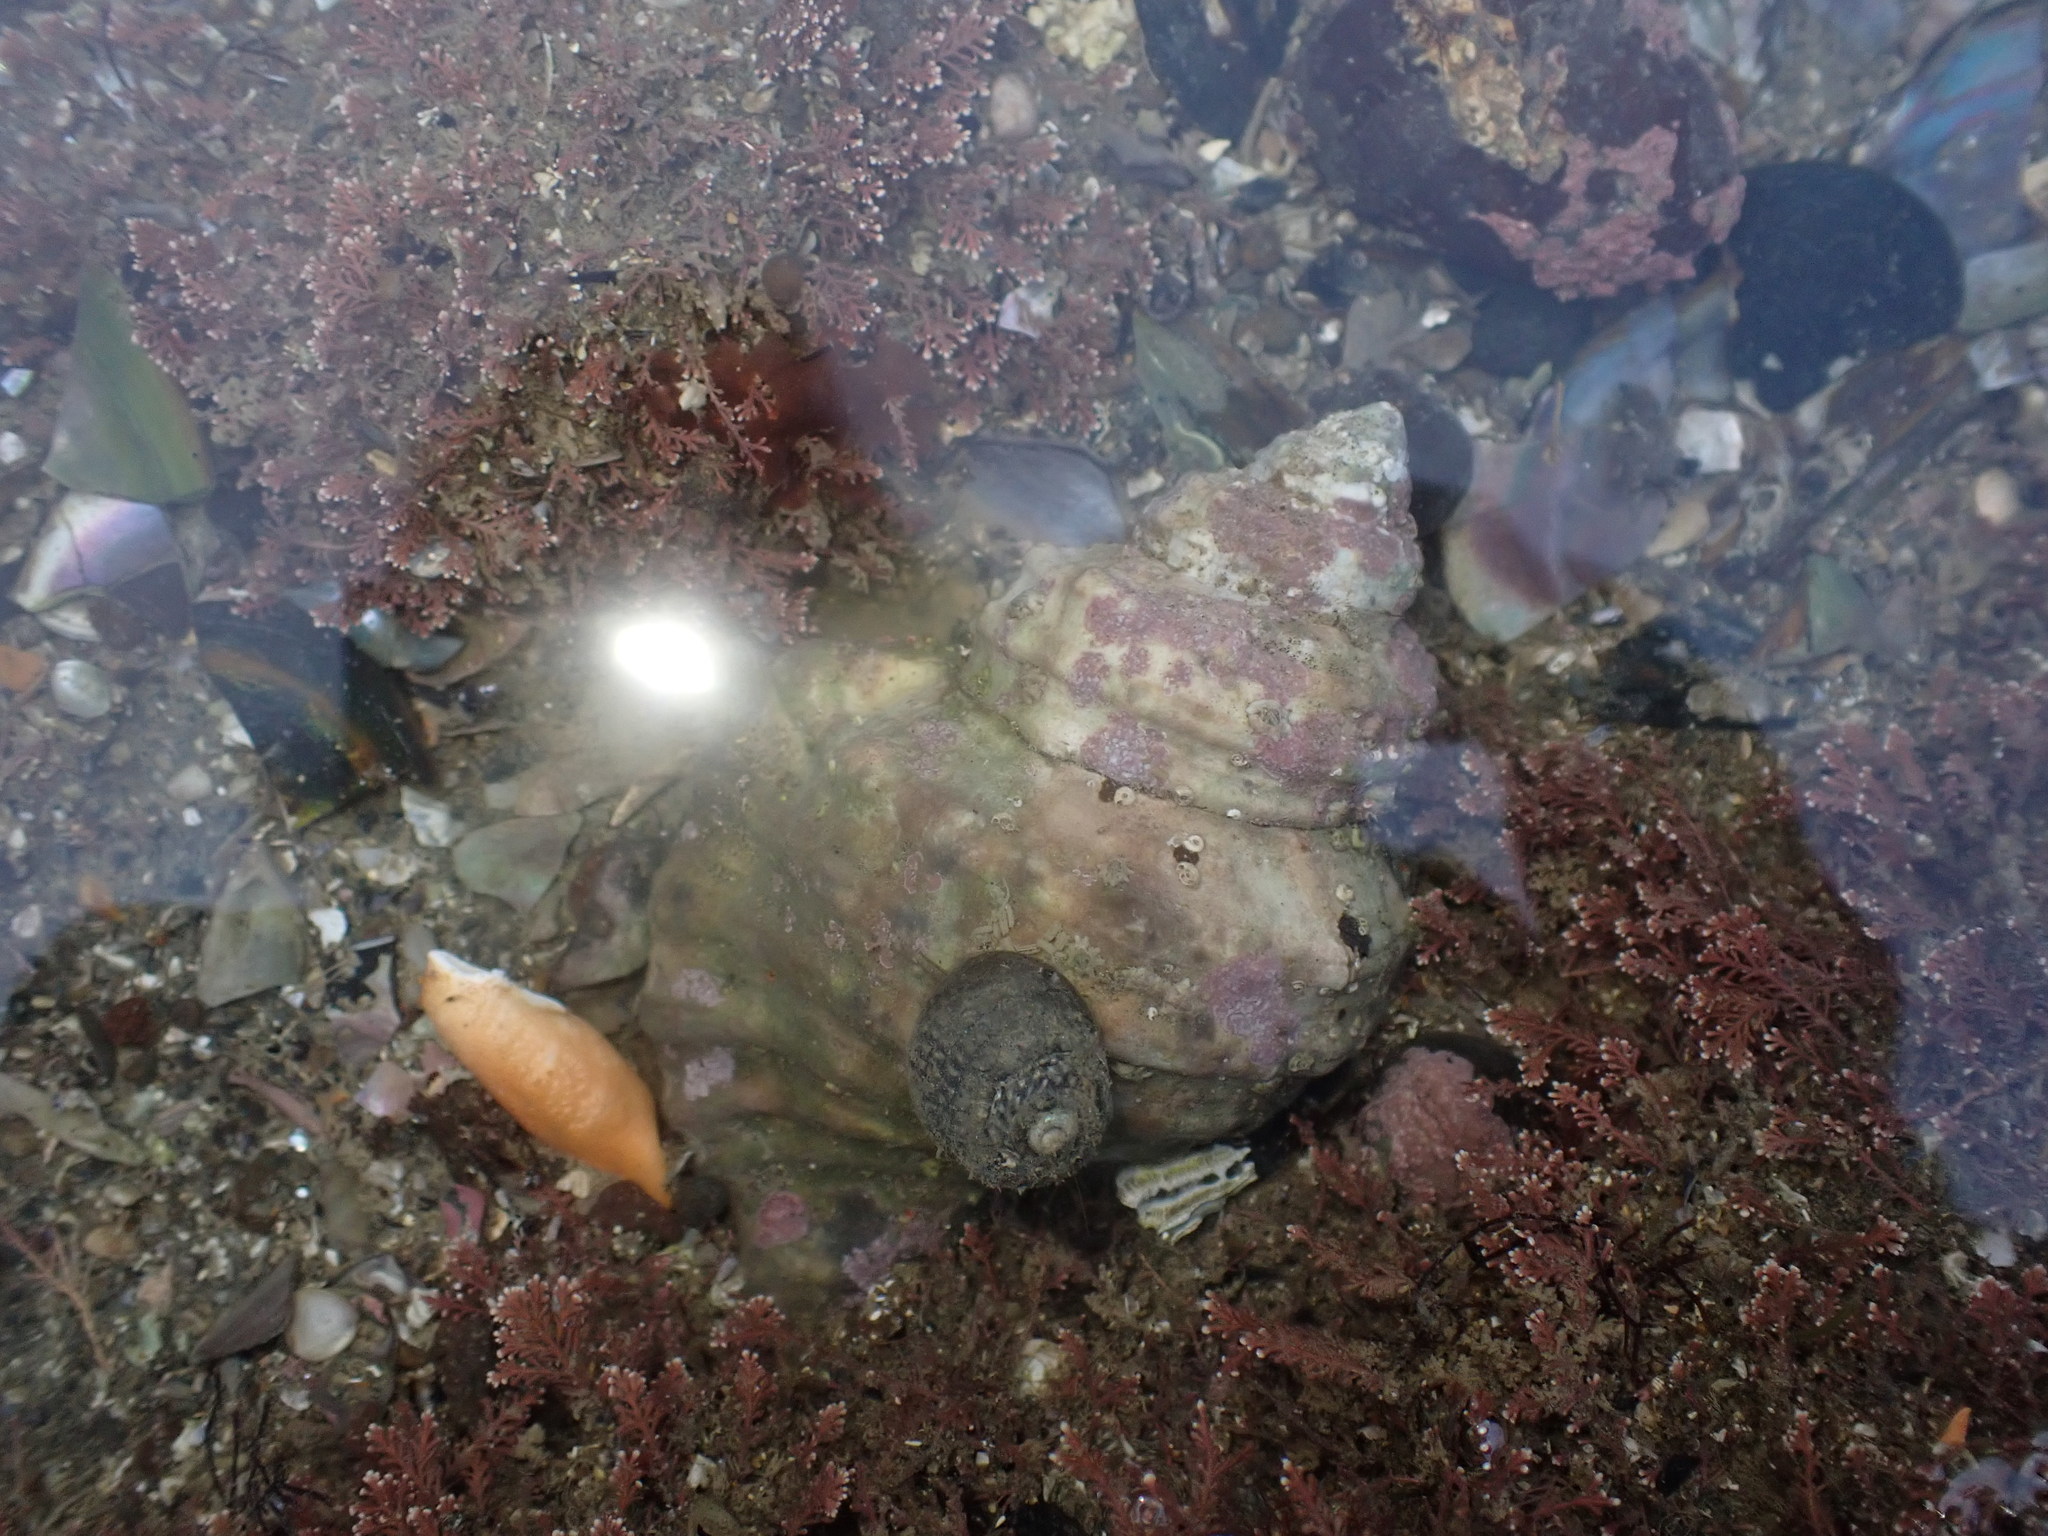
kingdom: Animalia
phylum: Mollusca
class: Gastropoda
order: Littorinimorpha
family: Cymatiidae
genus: Monoplex
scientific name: Monoplex parthenopeus
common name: Giant triton
